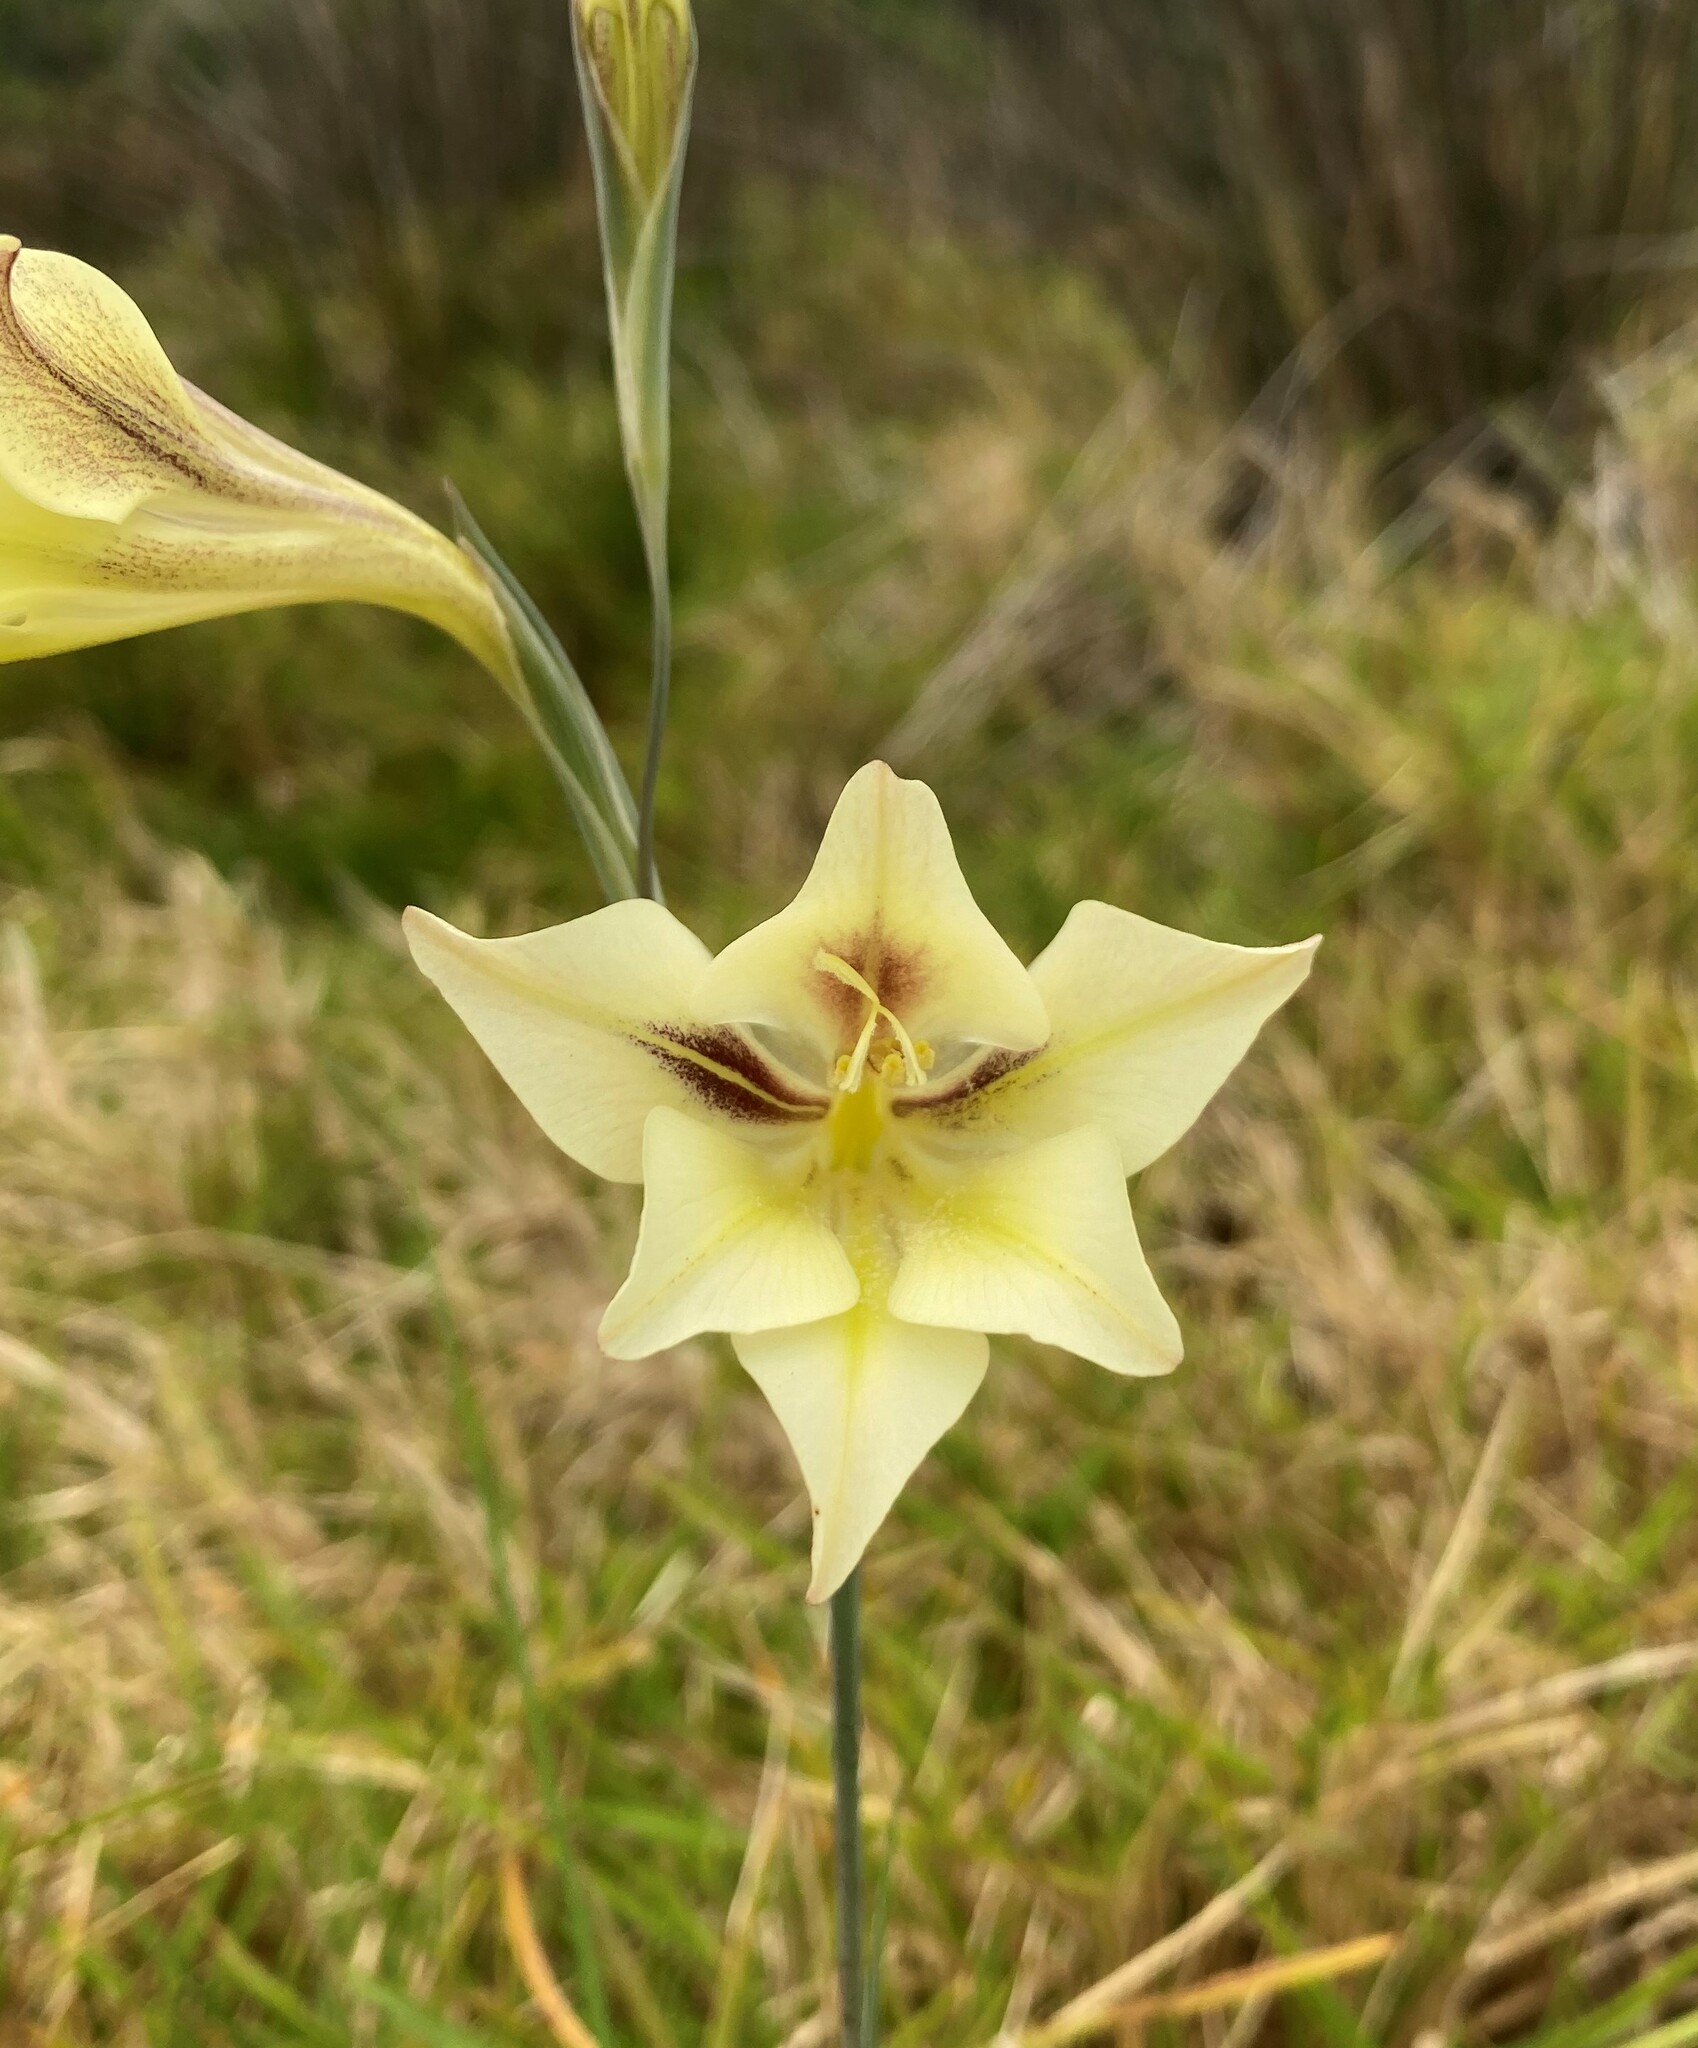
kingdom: Plantae
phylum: Tracheophyta
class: Liliopsida
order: Asparagales
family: Iridaceae
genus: Gladiolus
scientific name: Gladiolus tristis
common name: Ever-flowering gladiolus
